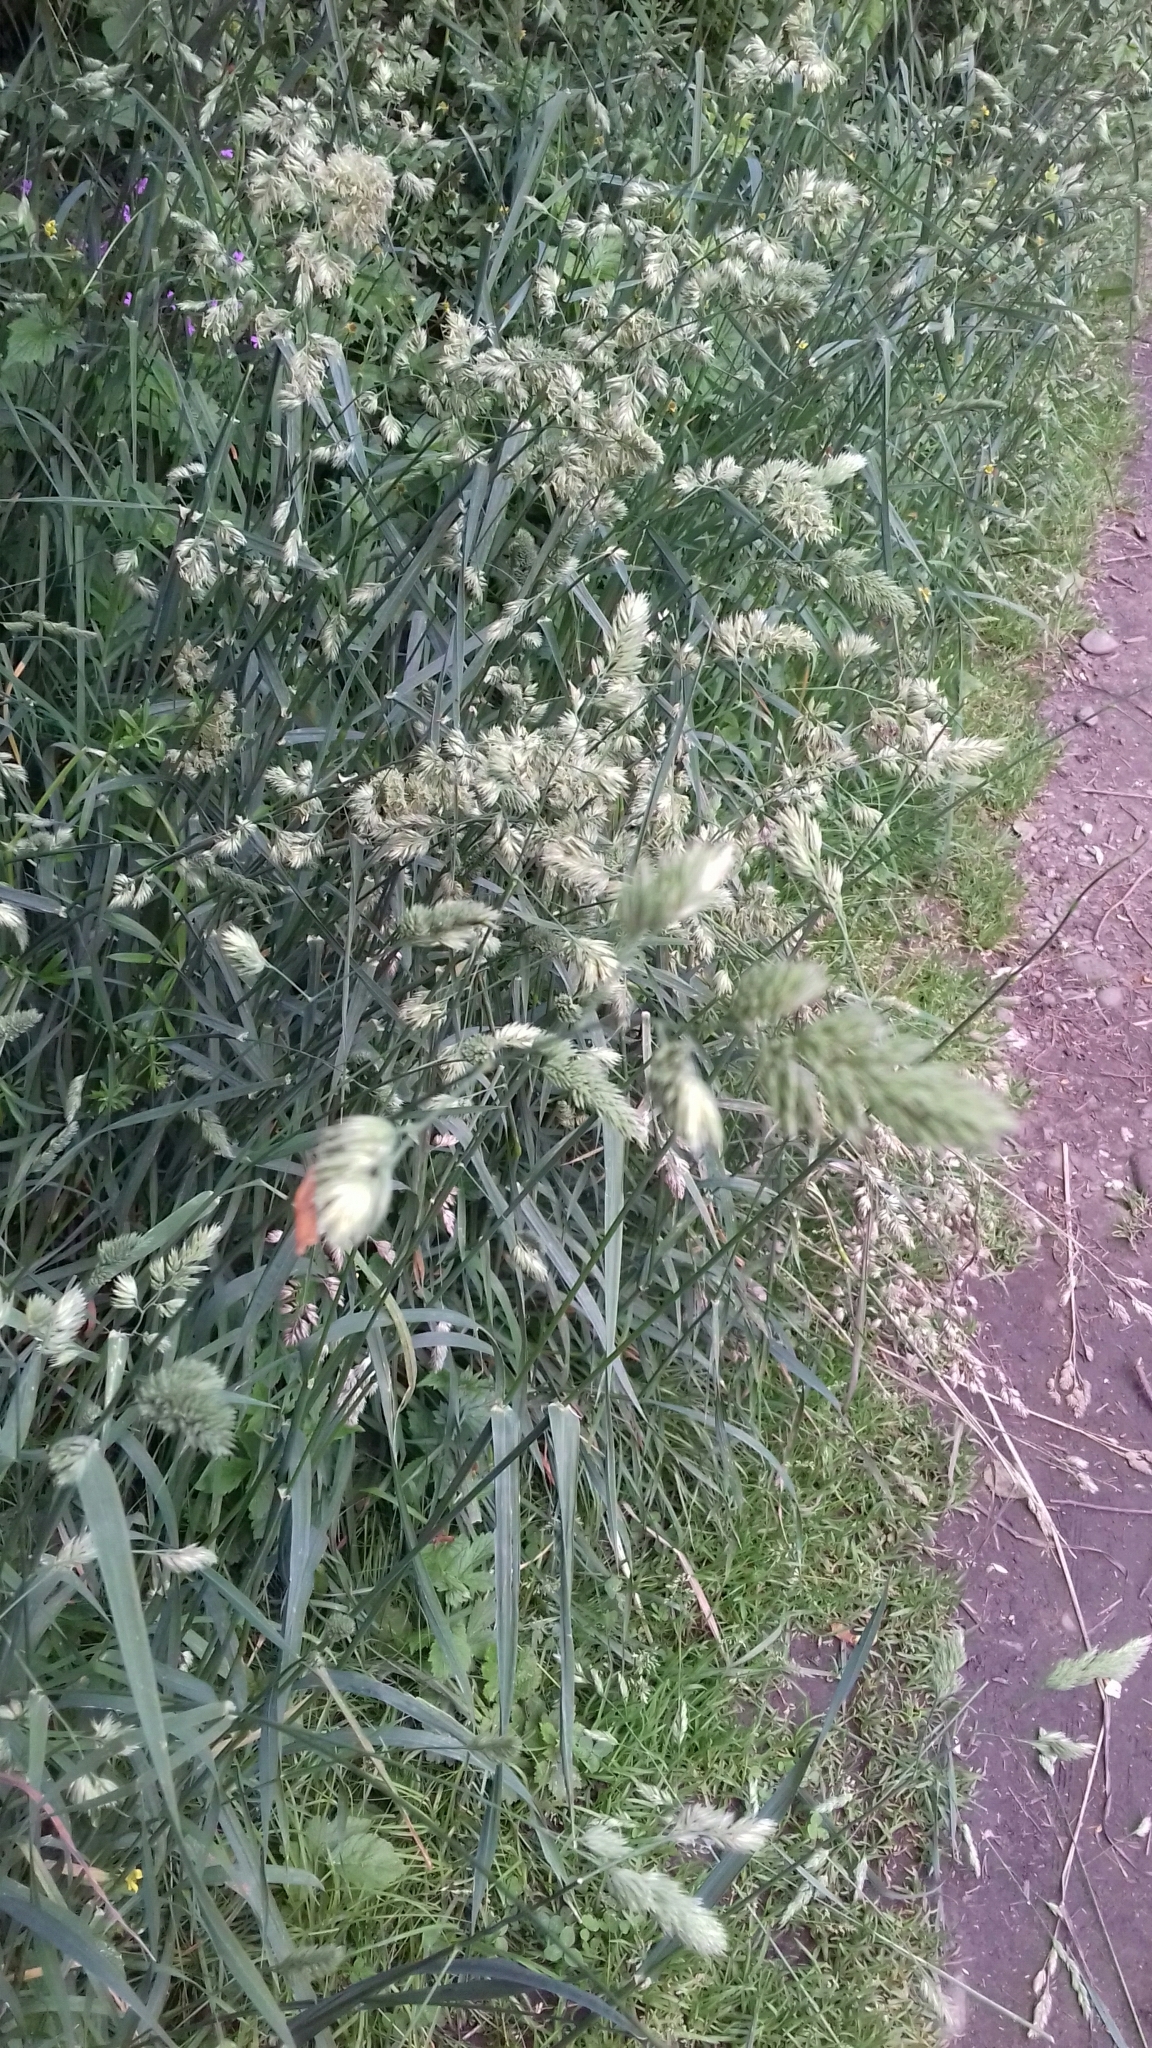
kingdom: Plantae
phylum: Tracheophyta
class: Liliopsida
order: Poales
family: Poaceae
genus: Dactylis
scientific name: Dactylis glomerata
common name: Orchardgrass
